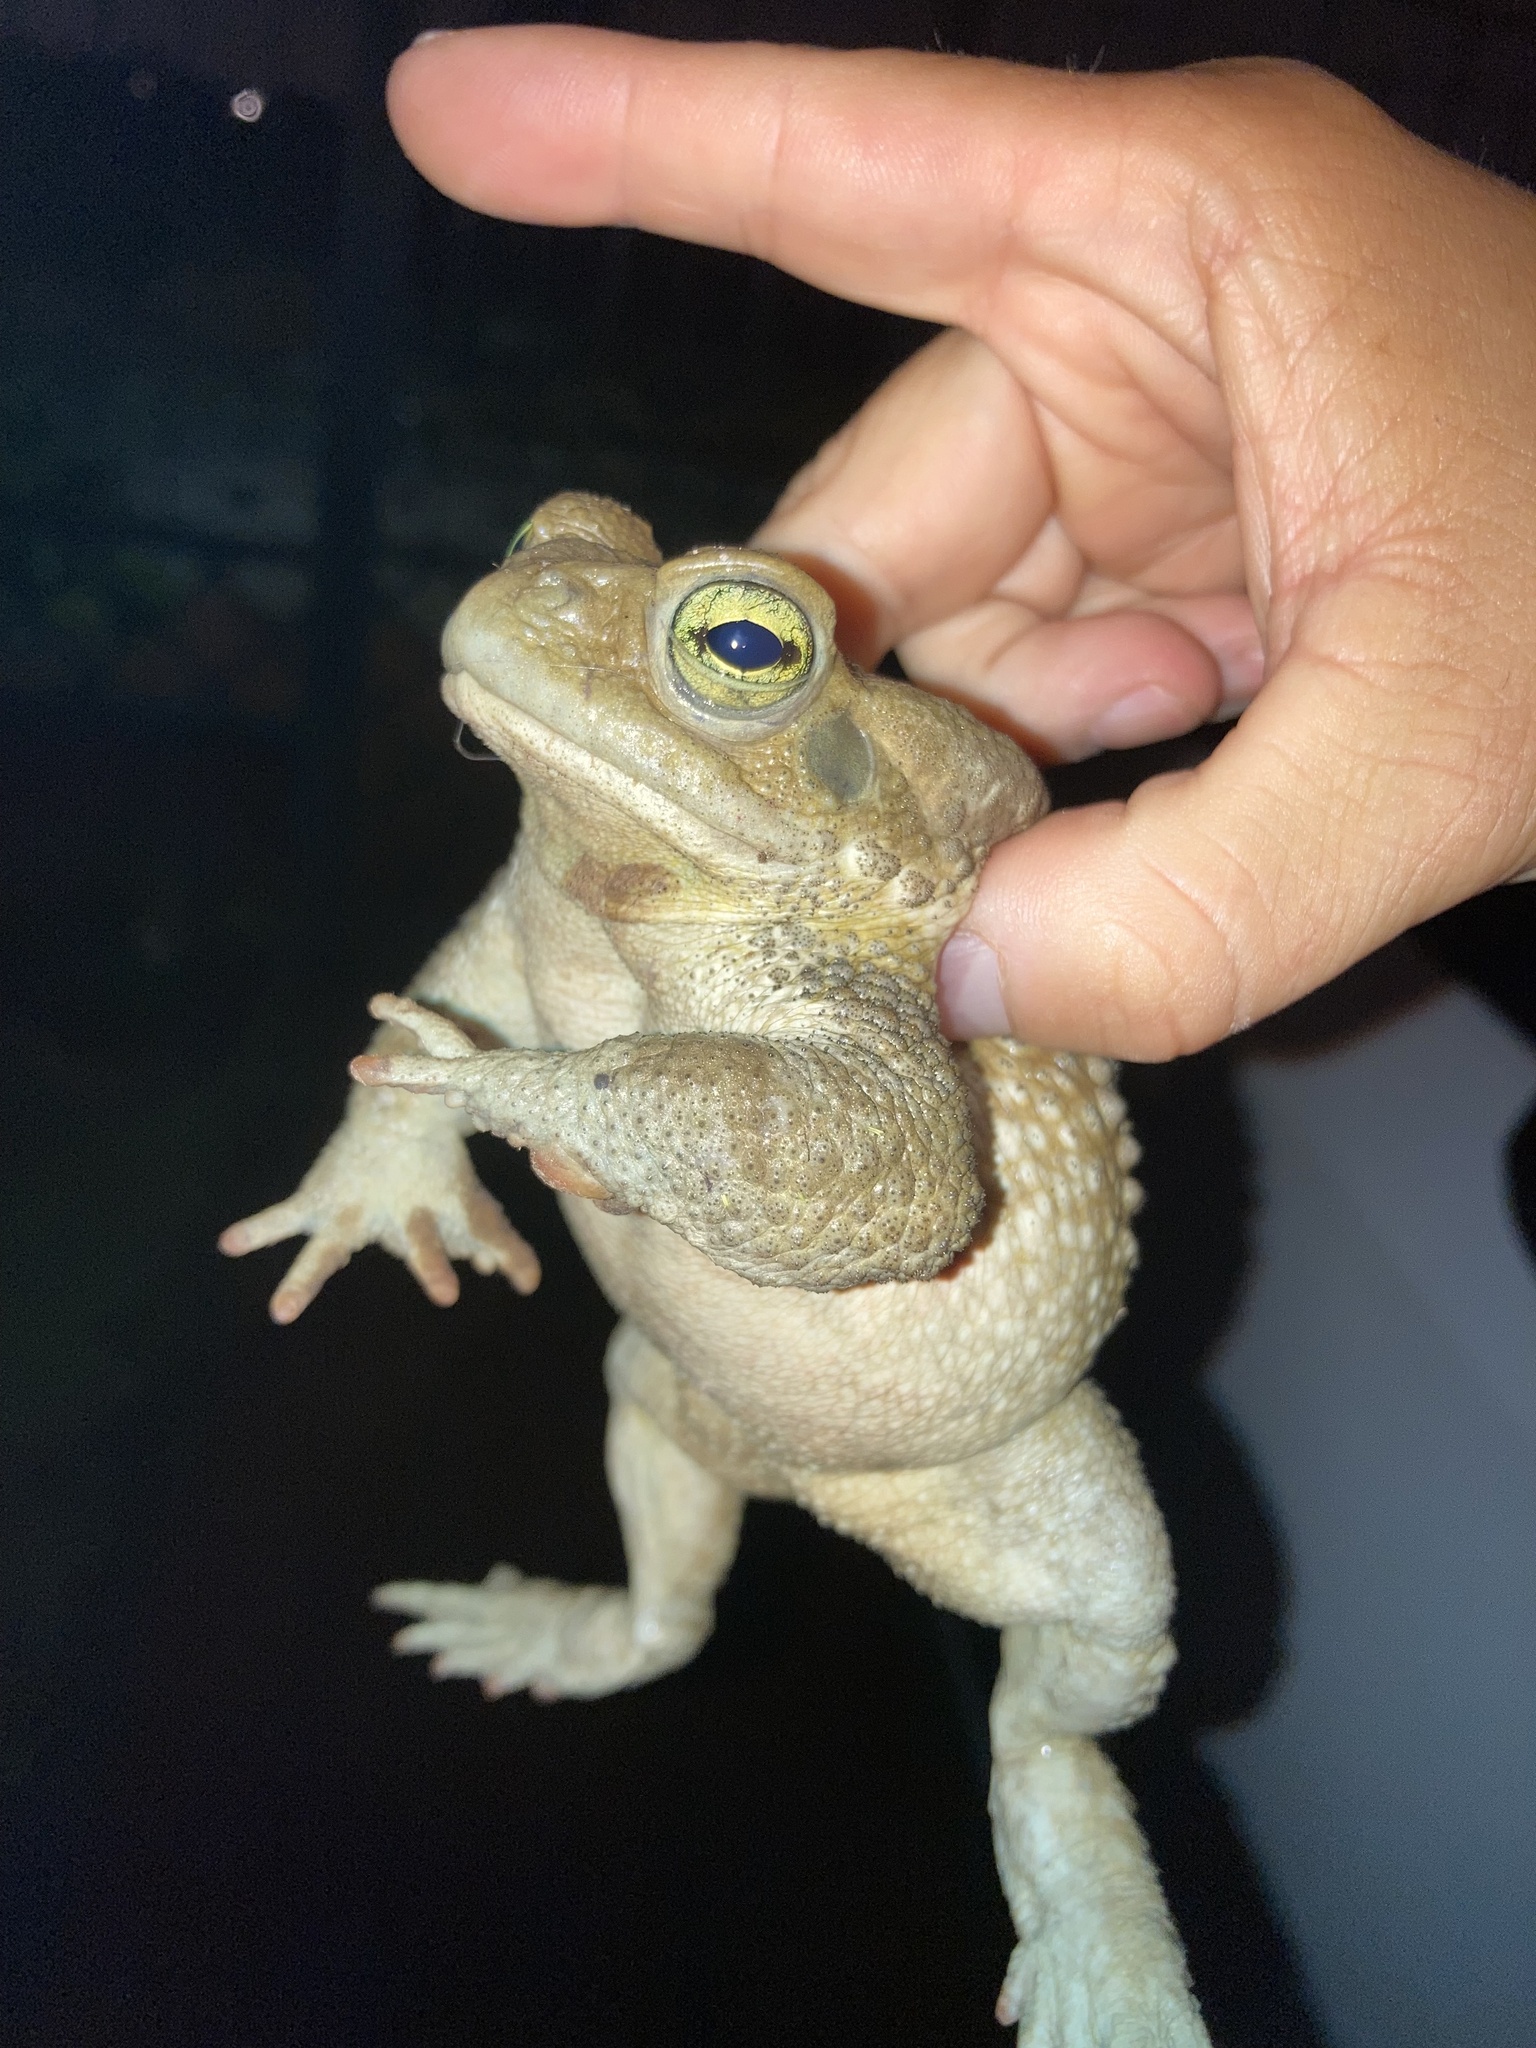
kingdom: Animalia
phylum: Chordata
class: Amphibia
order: Anura
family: Bufonidae
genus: Rhinella
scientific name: Rhinella arenarum
